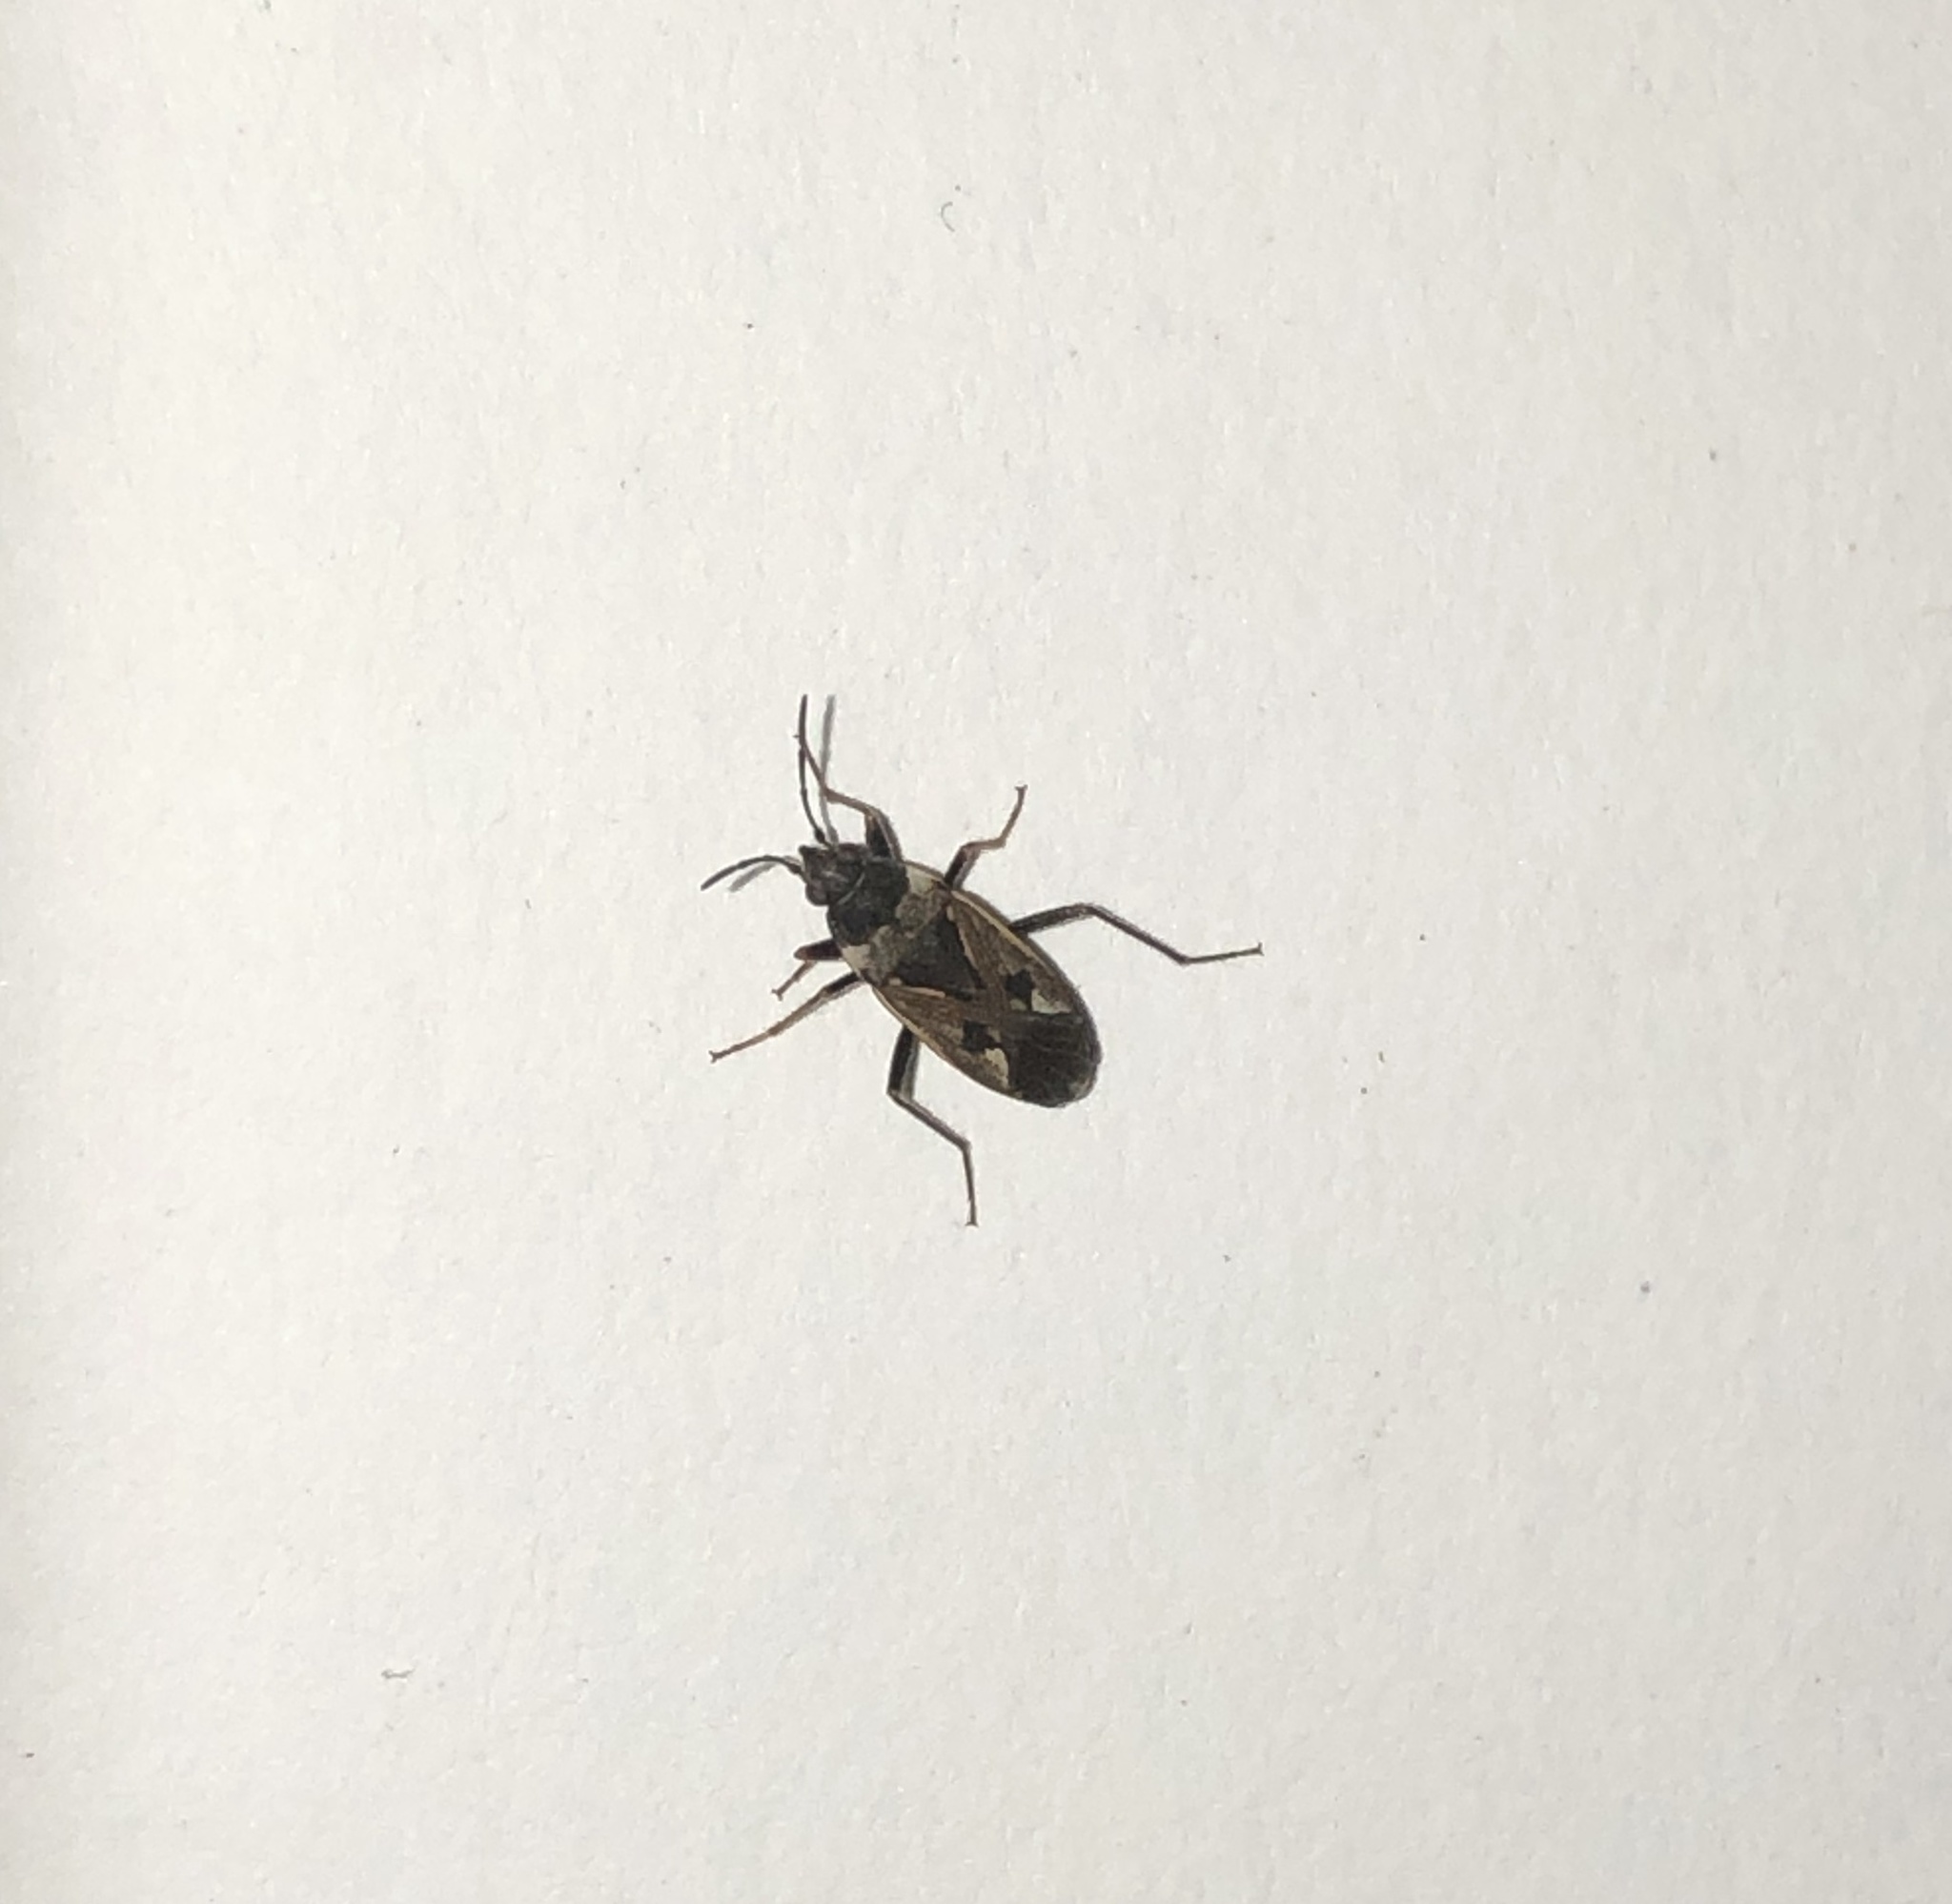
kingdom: Animalia
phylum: Arthropoda
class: Insecta
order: Hemiptera
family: Rhyparochromidae
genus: Rhyparochromus
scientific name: Rhyparochromus vulgaris
